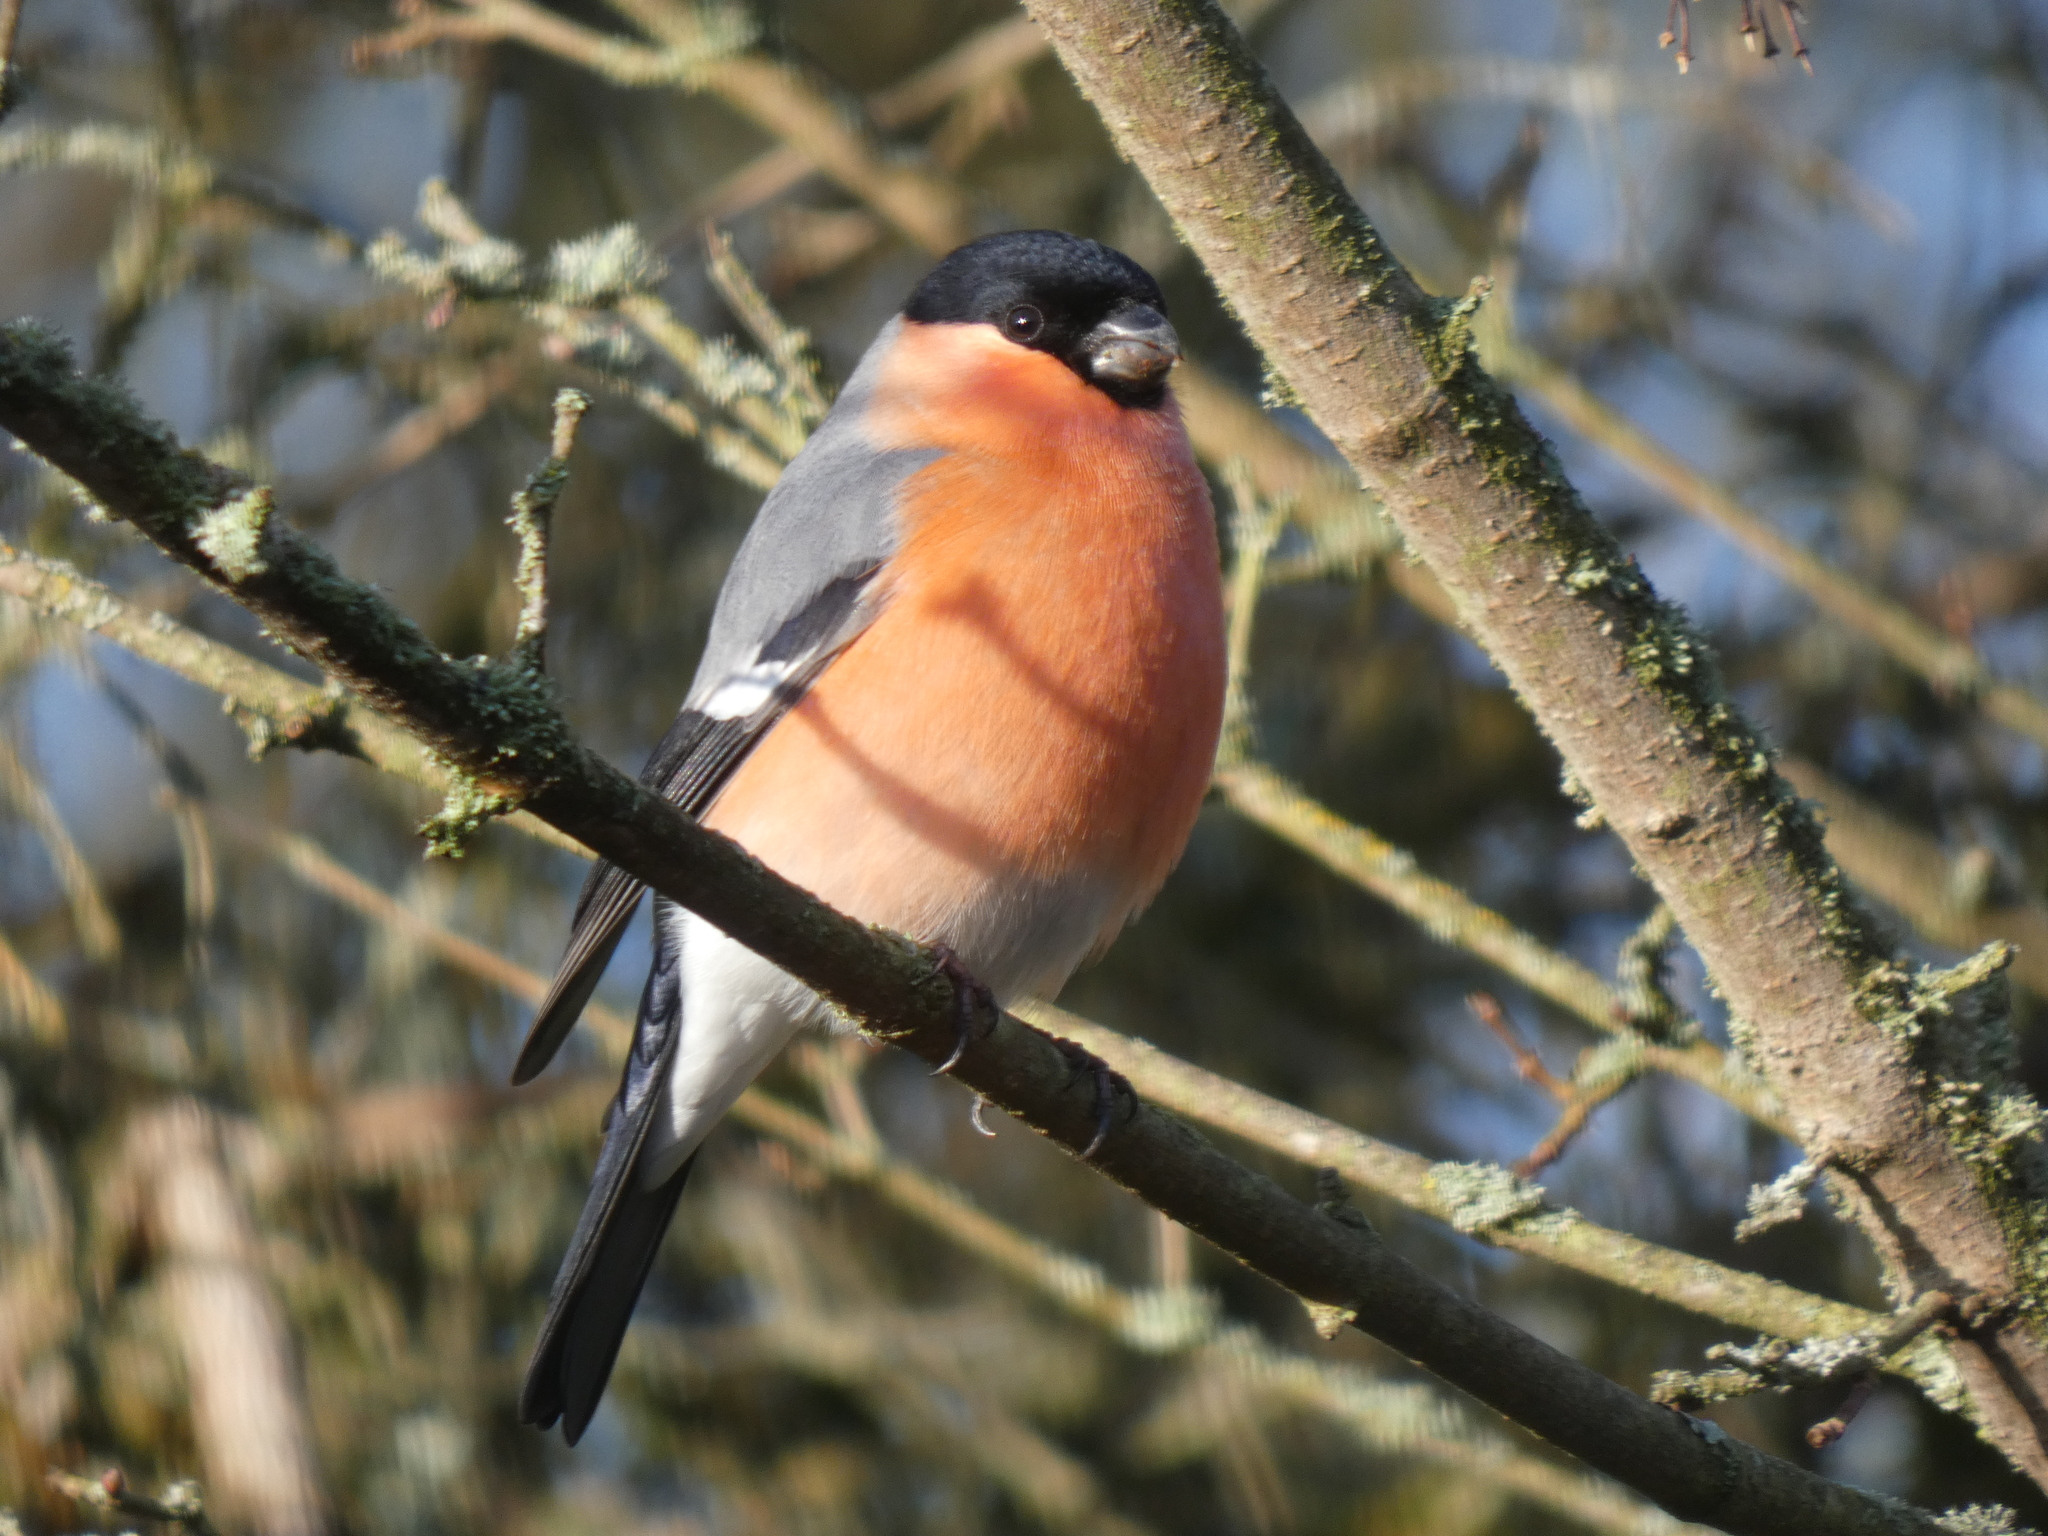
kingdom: Animalia
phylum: Chordata
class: Aves
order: Passeriformes
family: Fringillidae
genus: Pyrrhula
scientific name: Pyrrhula pyrrhula
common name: Eurasian bullfinch
